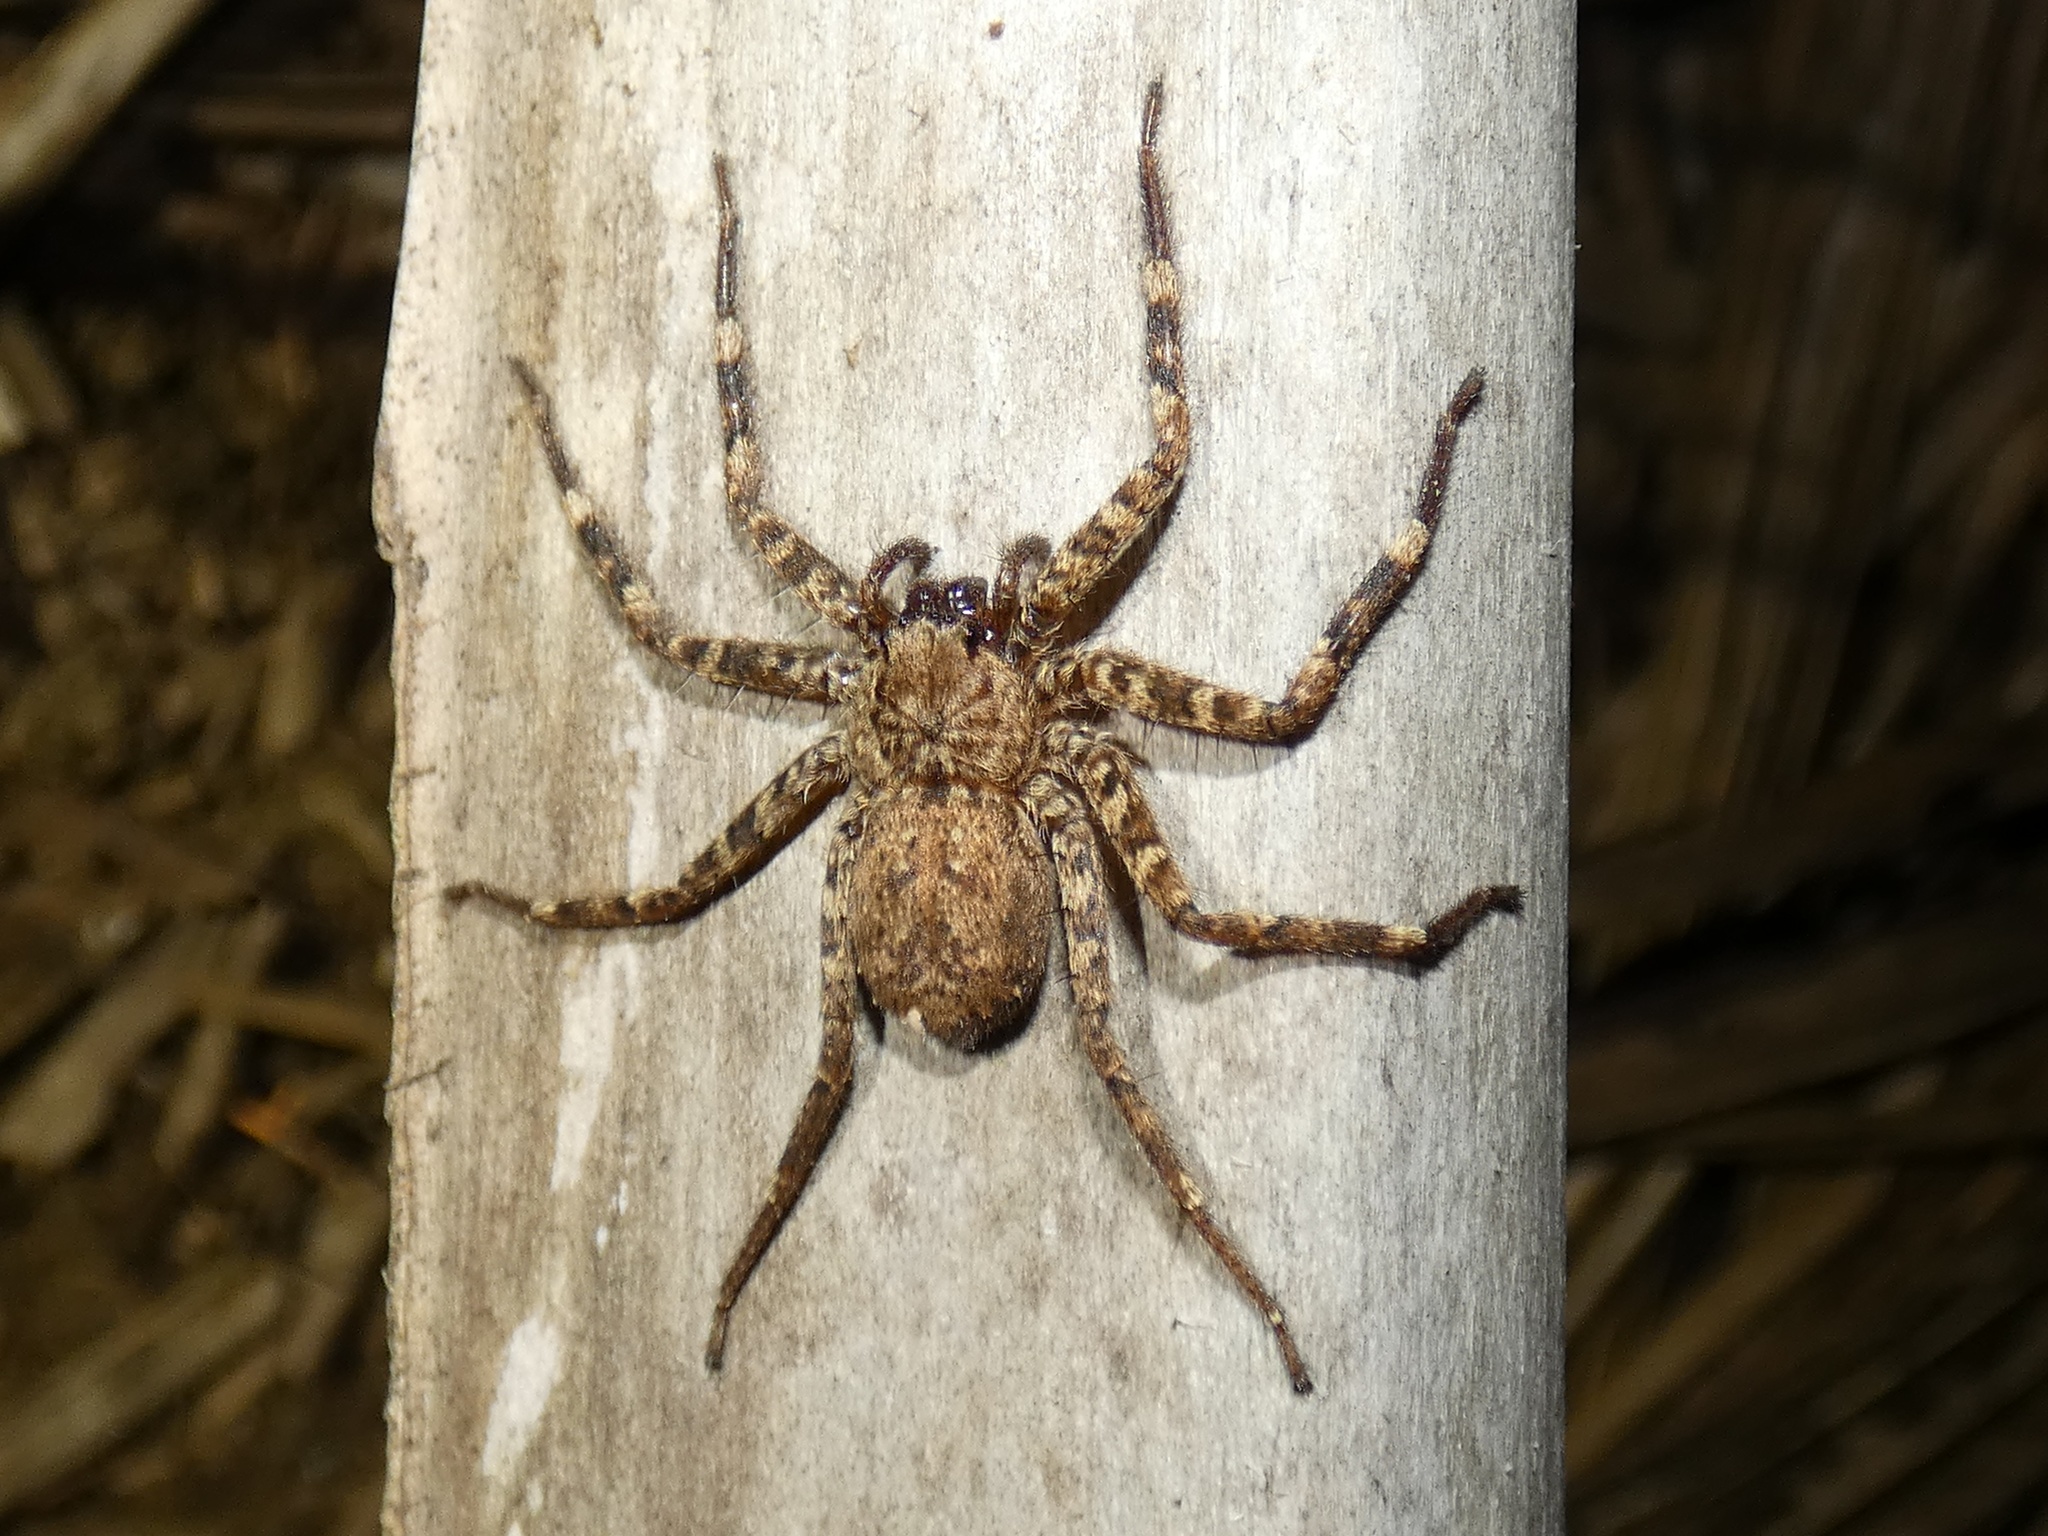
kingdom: Animalia
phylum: Arthropoda
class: Arachnida
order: Araneae
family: Selenopidae
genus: Selenops
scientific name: Selenops mexicanus
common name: Wall crab spiders
